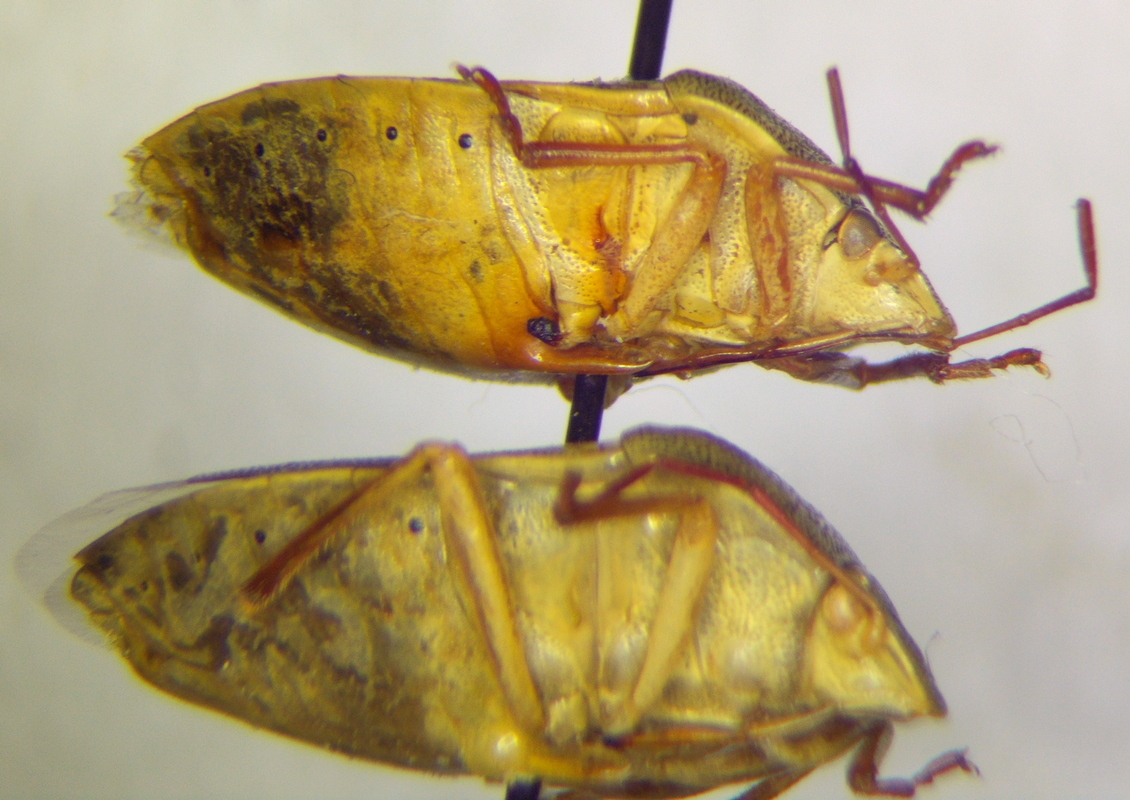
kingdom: Animalia
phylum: Arthropoda
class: Insecta
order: Hemiptera
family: Pentatomidae
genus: Piezodorus
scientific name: Piezodorus lituratus
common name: Stink bug
